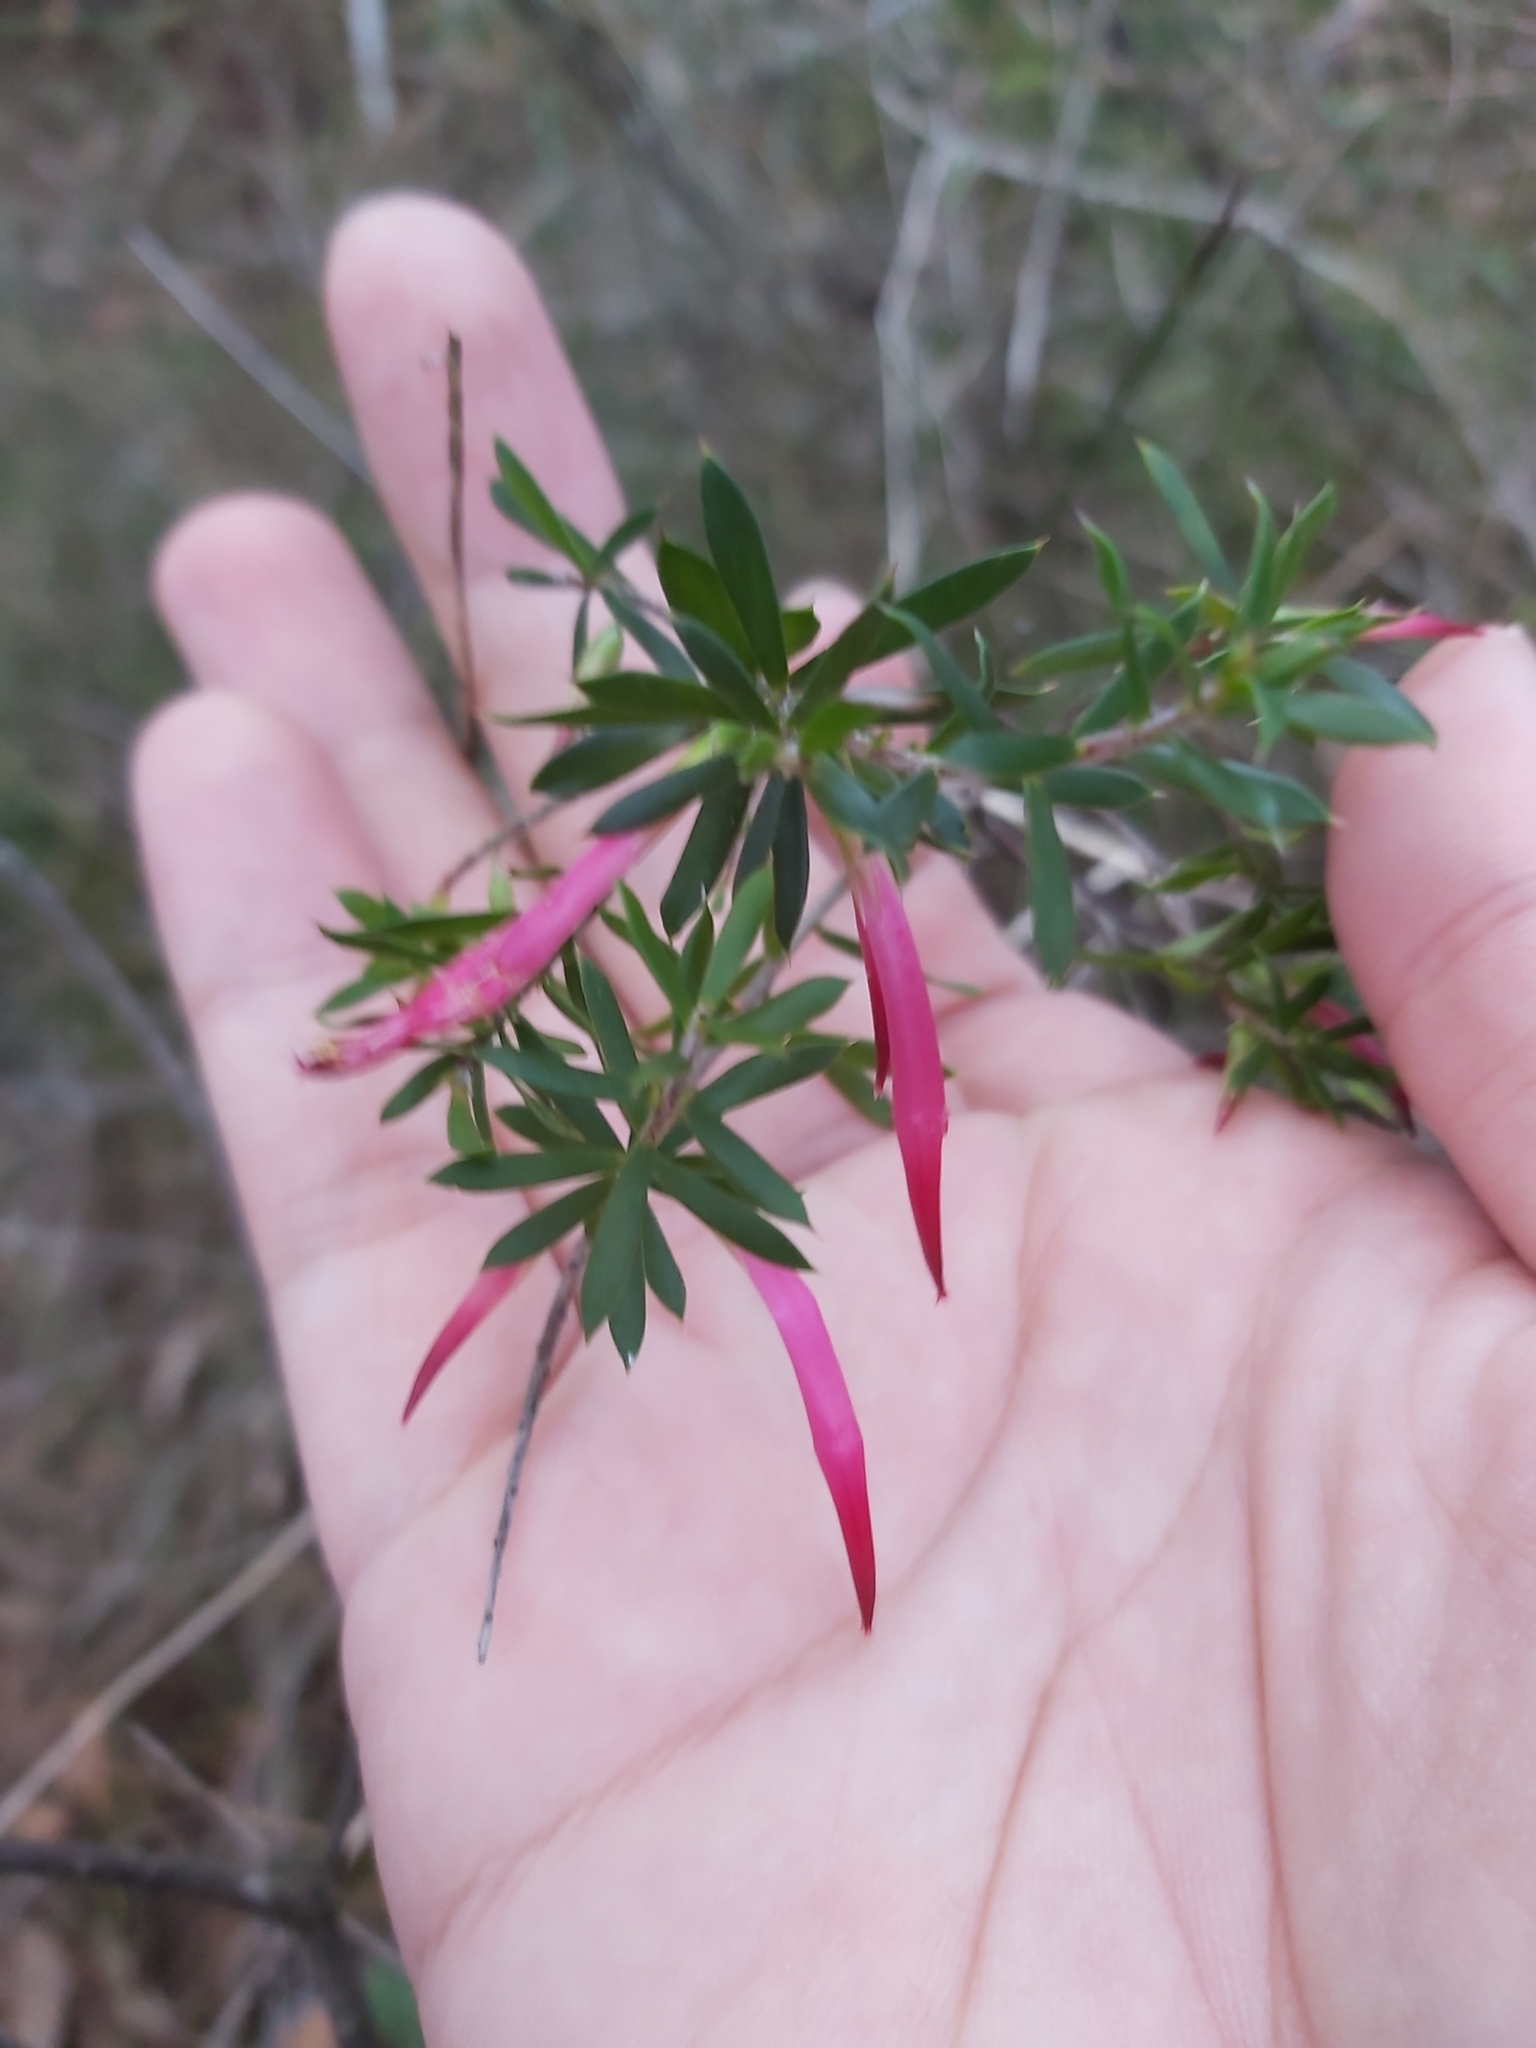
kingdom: Plantae
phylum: Tracheophyta
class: Magnoliopsida
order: Ericales
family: Ericaceae
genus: Styphelia
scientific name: Styphelia tubiflora
